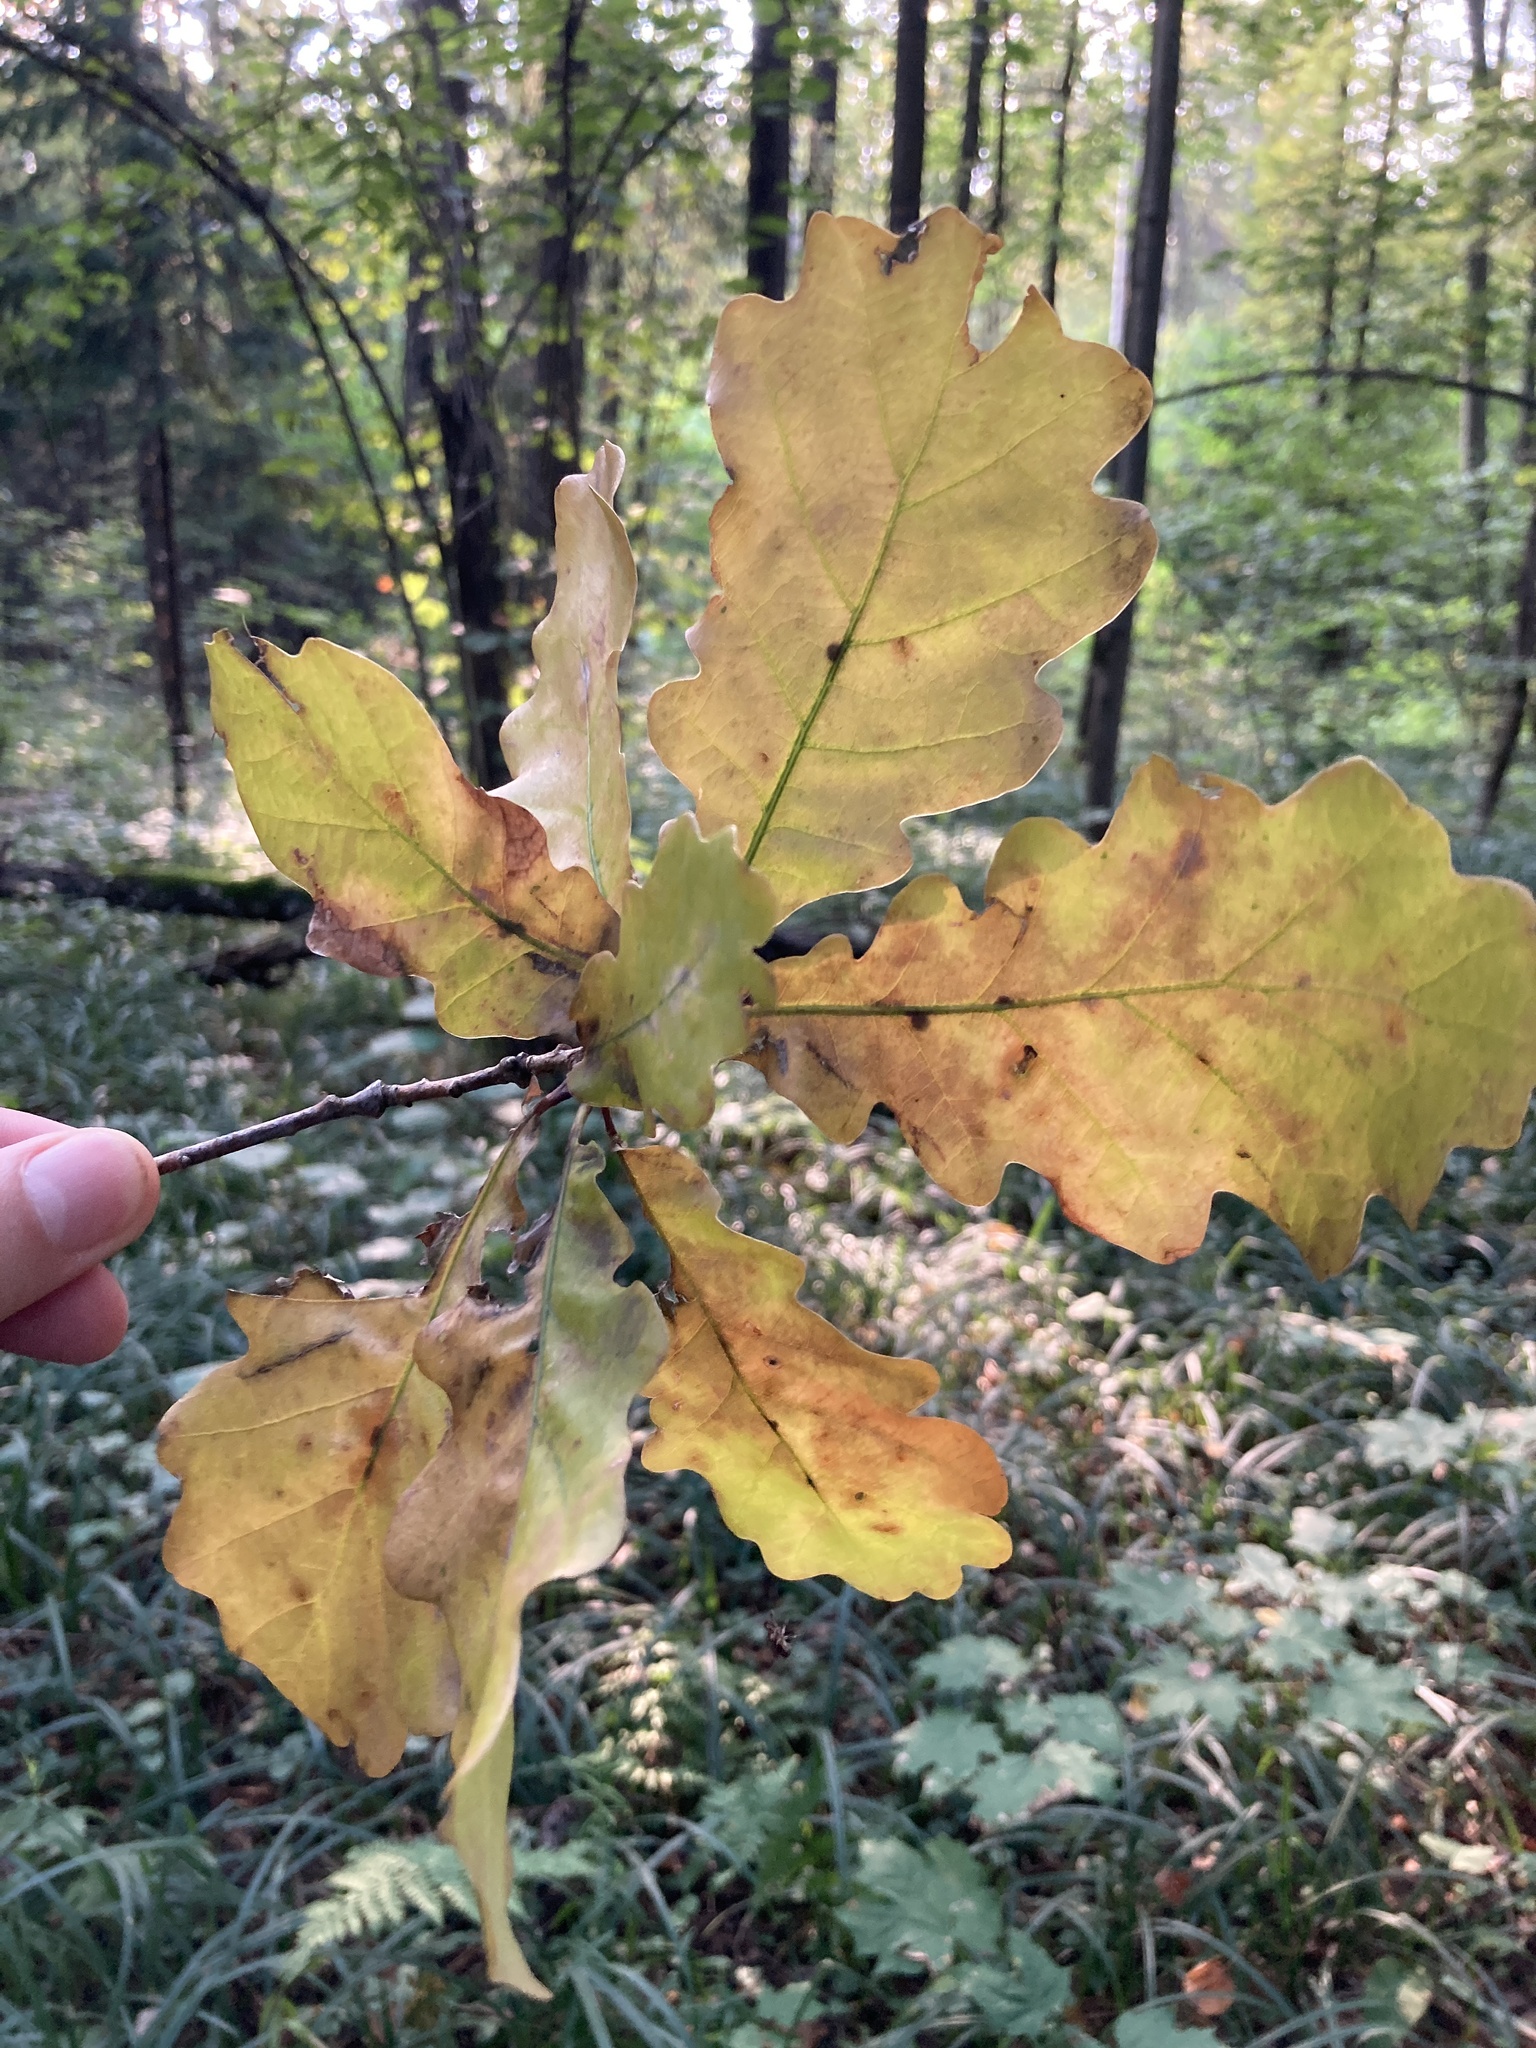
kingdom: Plantae
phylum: Tracheophyta
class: Magnoliopsida
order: Fagales
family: Fagaceae
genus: Quercus
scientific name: Quercus robur
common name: Pedunculate oak
